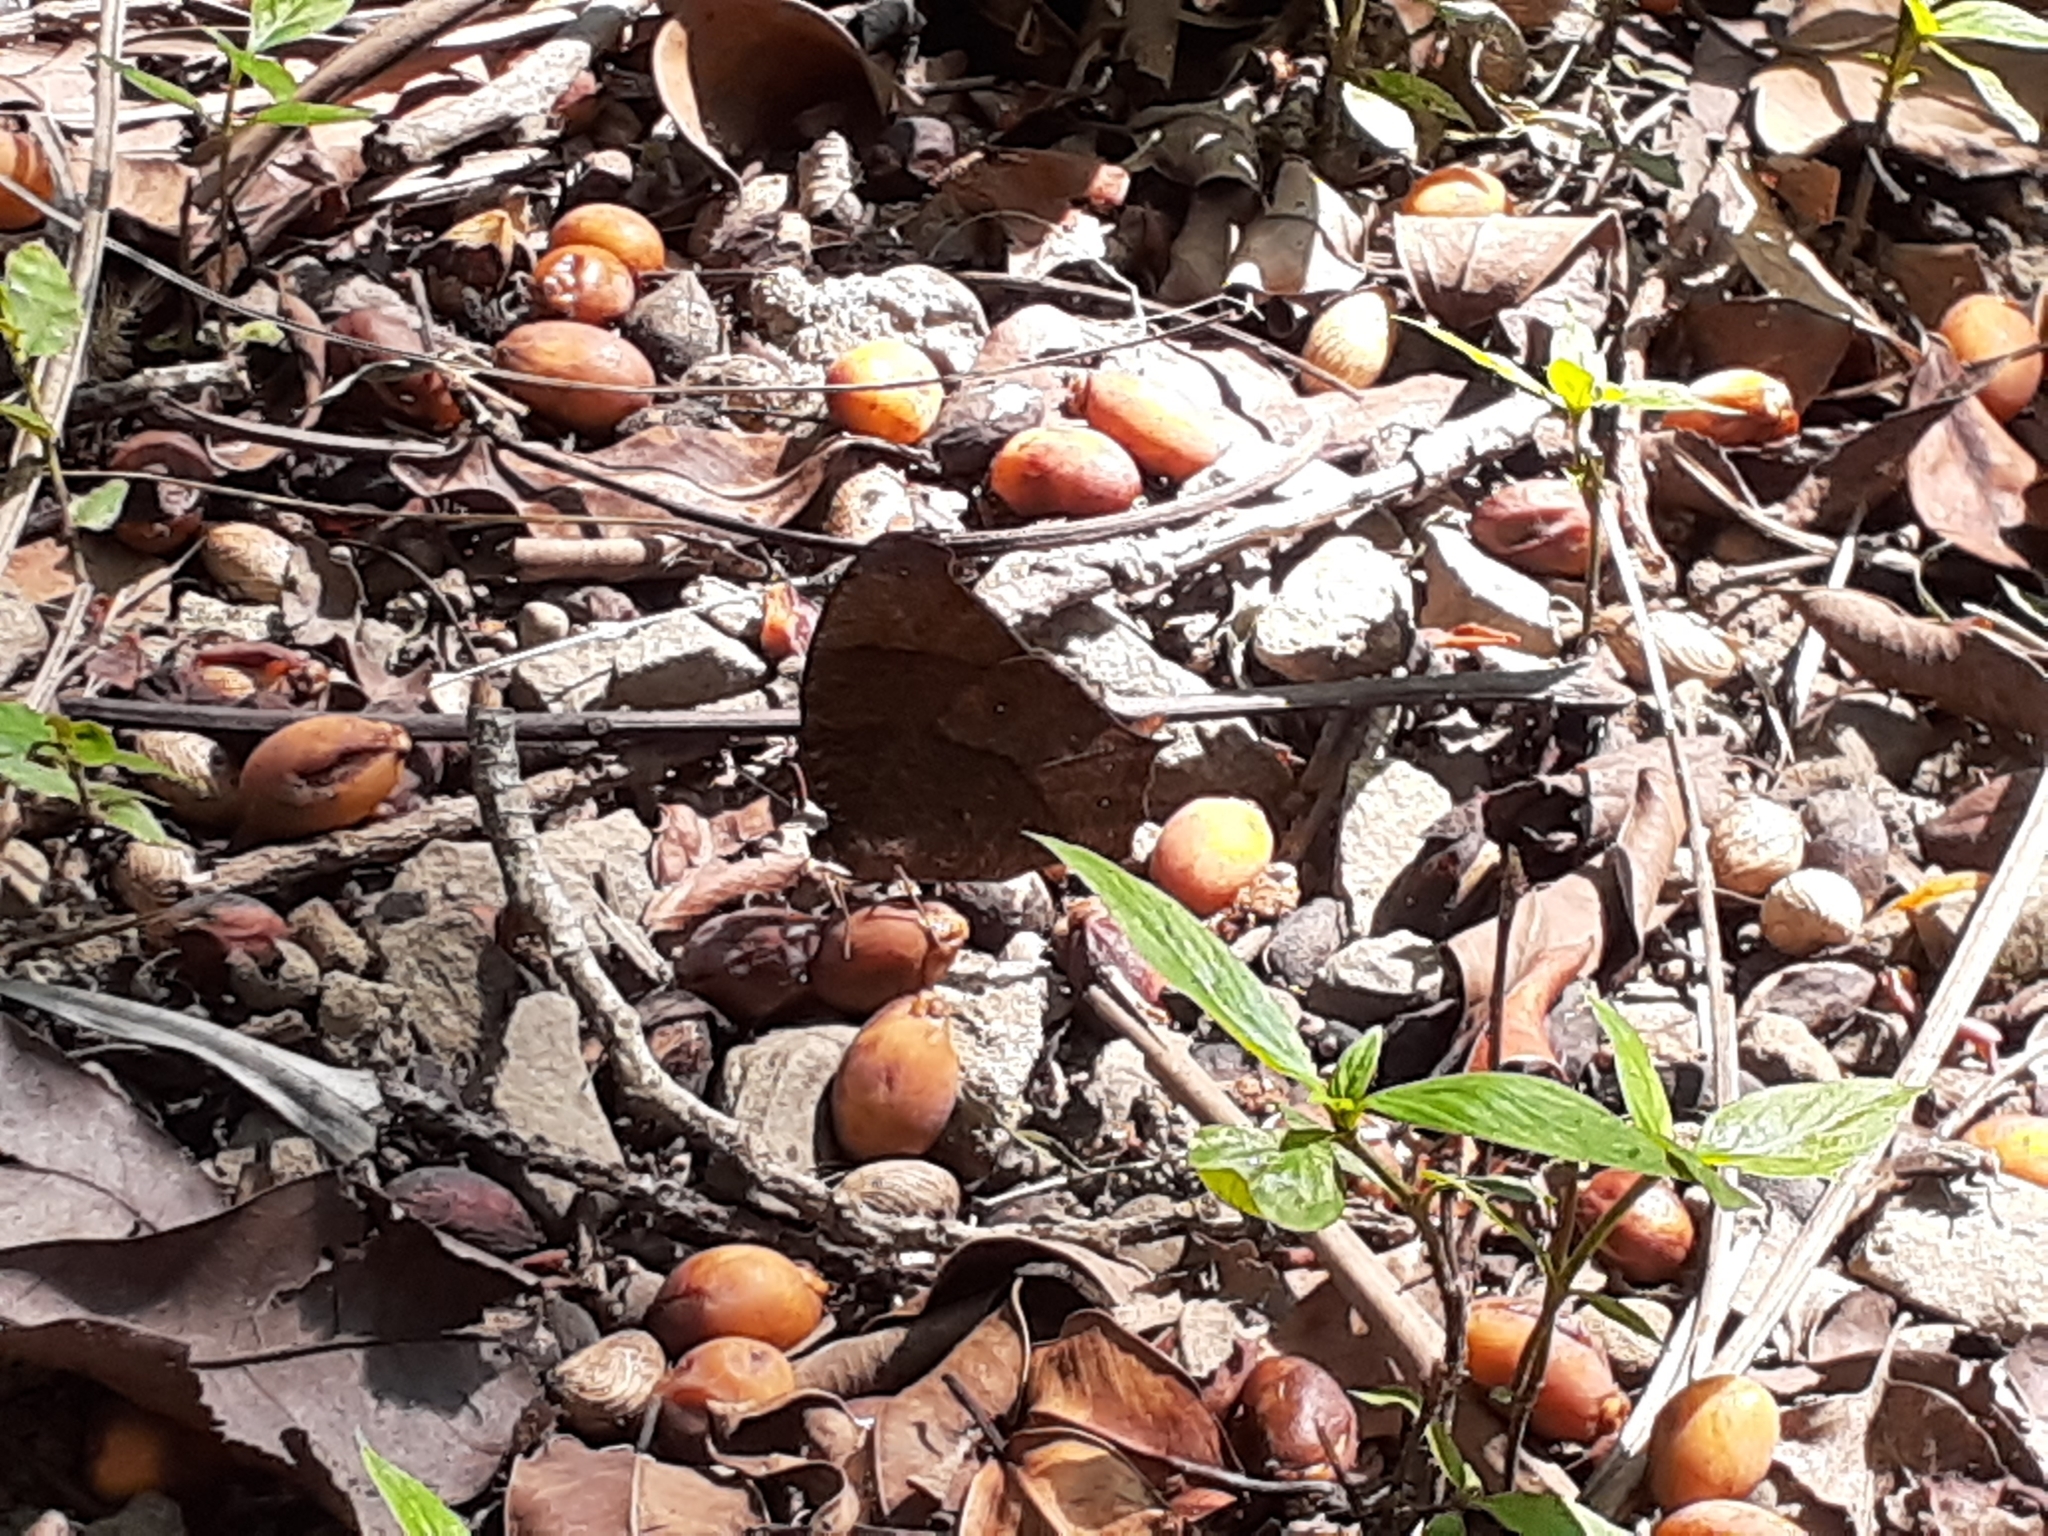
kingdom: Animalia
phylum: Arthropoda
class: Insecta
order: Lepidoptera
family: Nymphalidae
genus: Melanitis
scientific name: Melanitis phedima
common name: Dark evening brown
